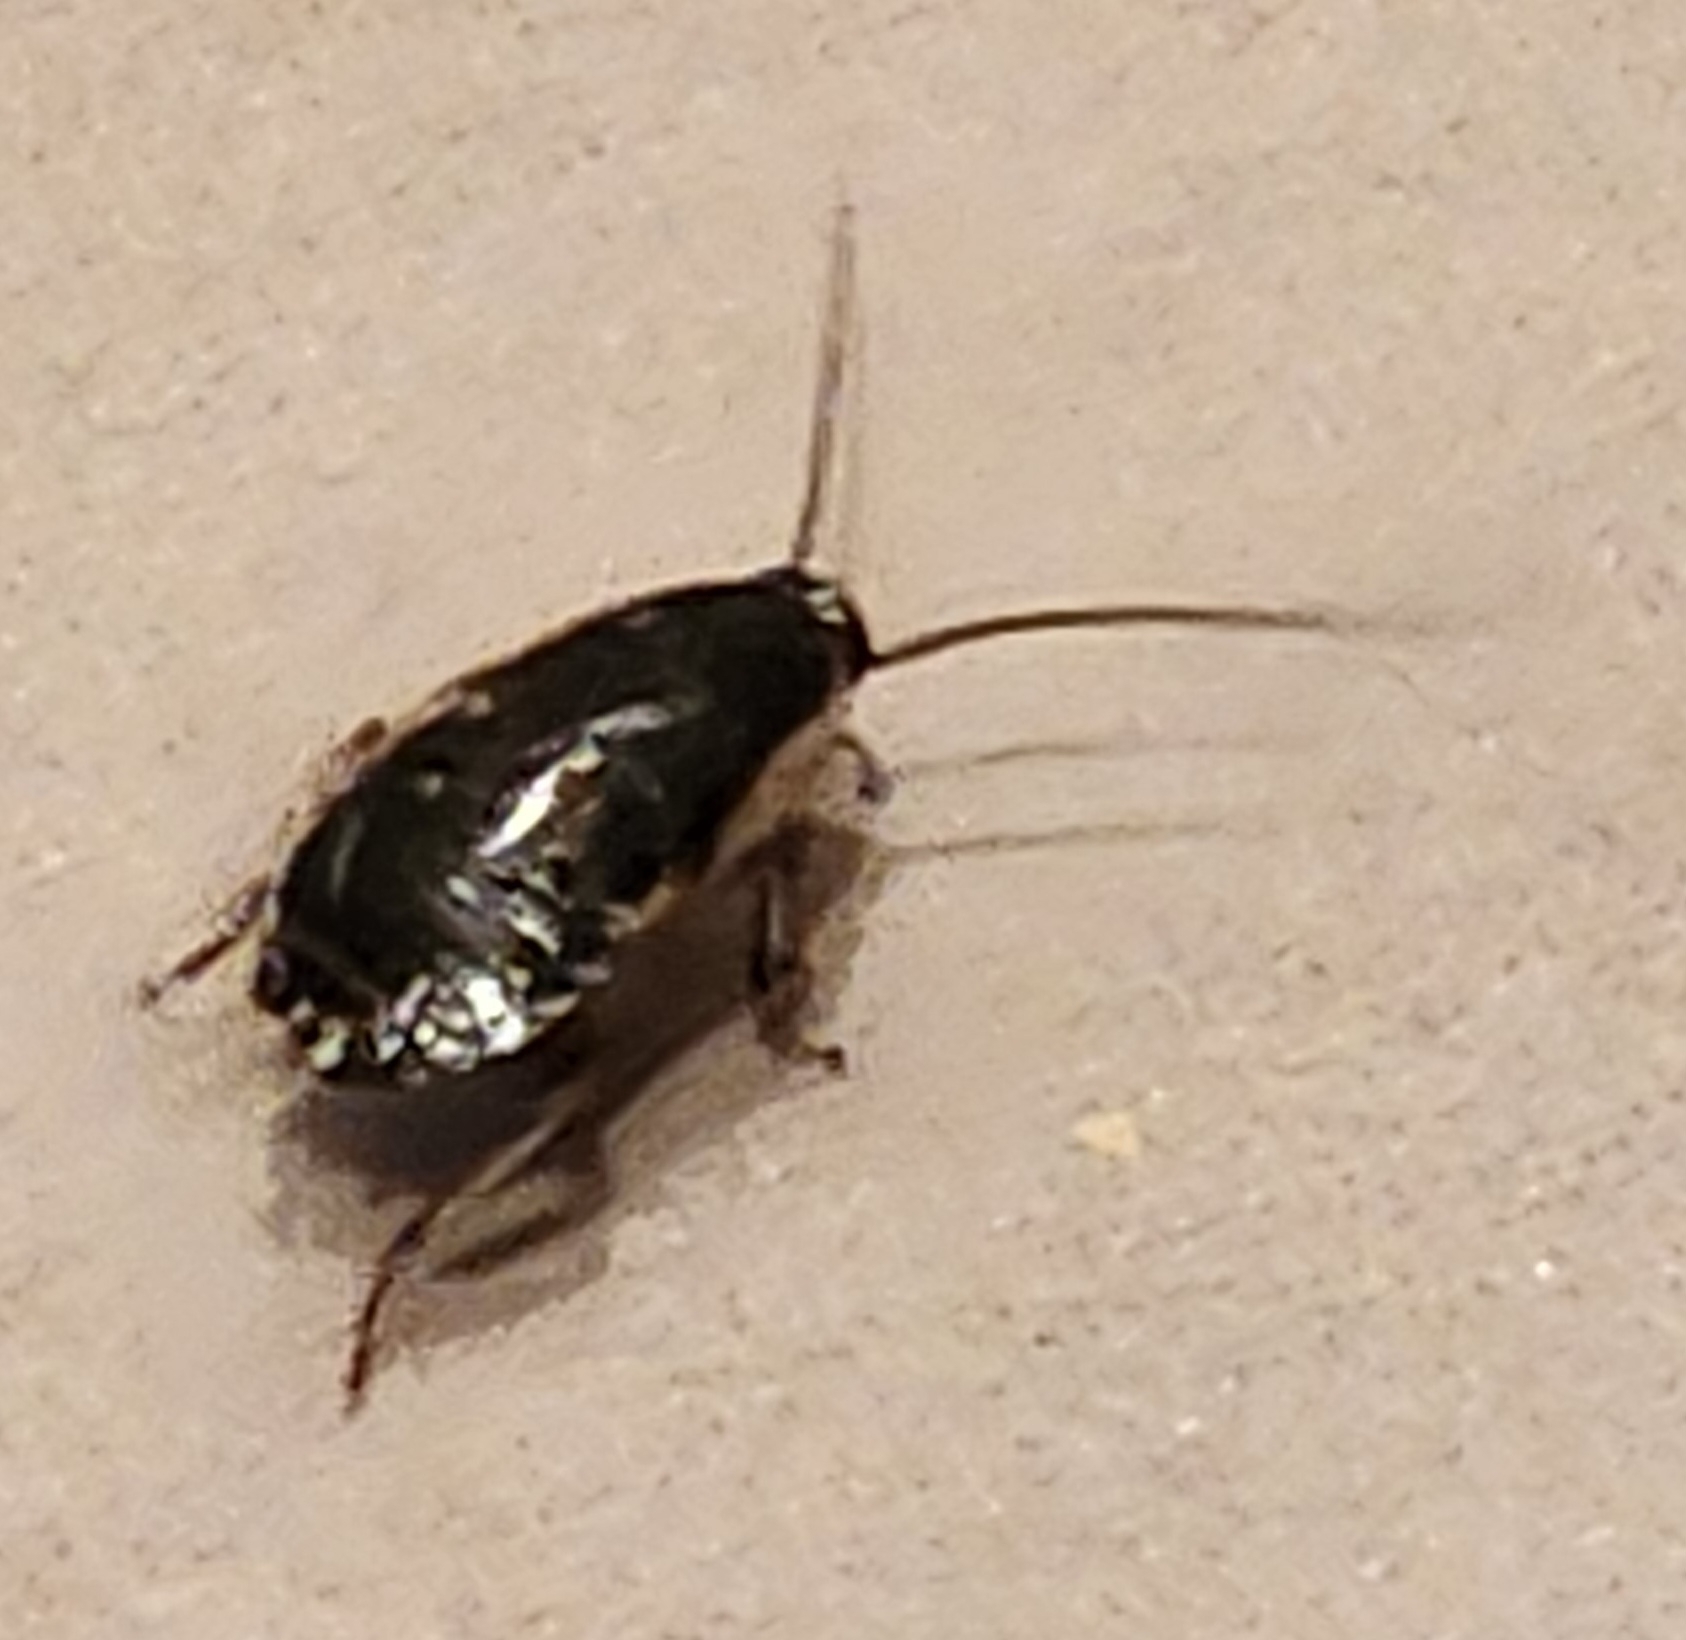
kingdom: Animalia
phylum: Arthropoda
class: Insecta
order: Blattodea
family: Blattidae
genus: Drymaplaneta
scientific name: Drymaplaneta semivitta
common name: Gisborne cockroach
